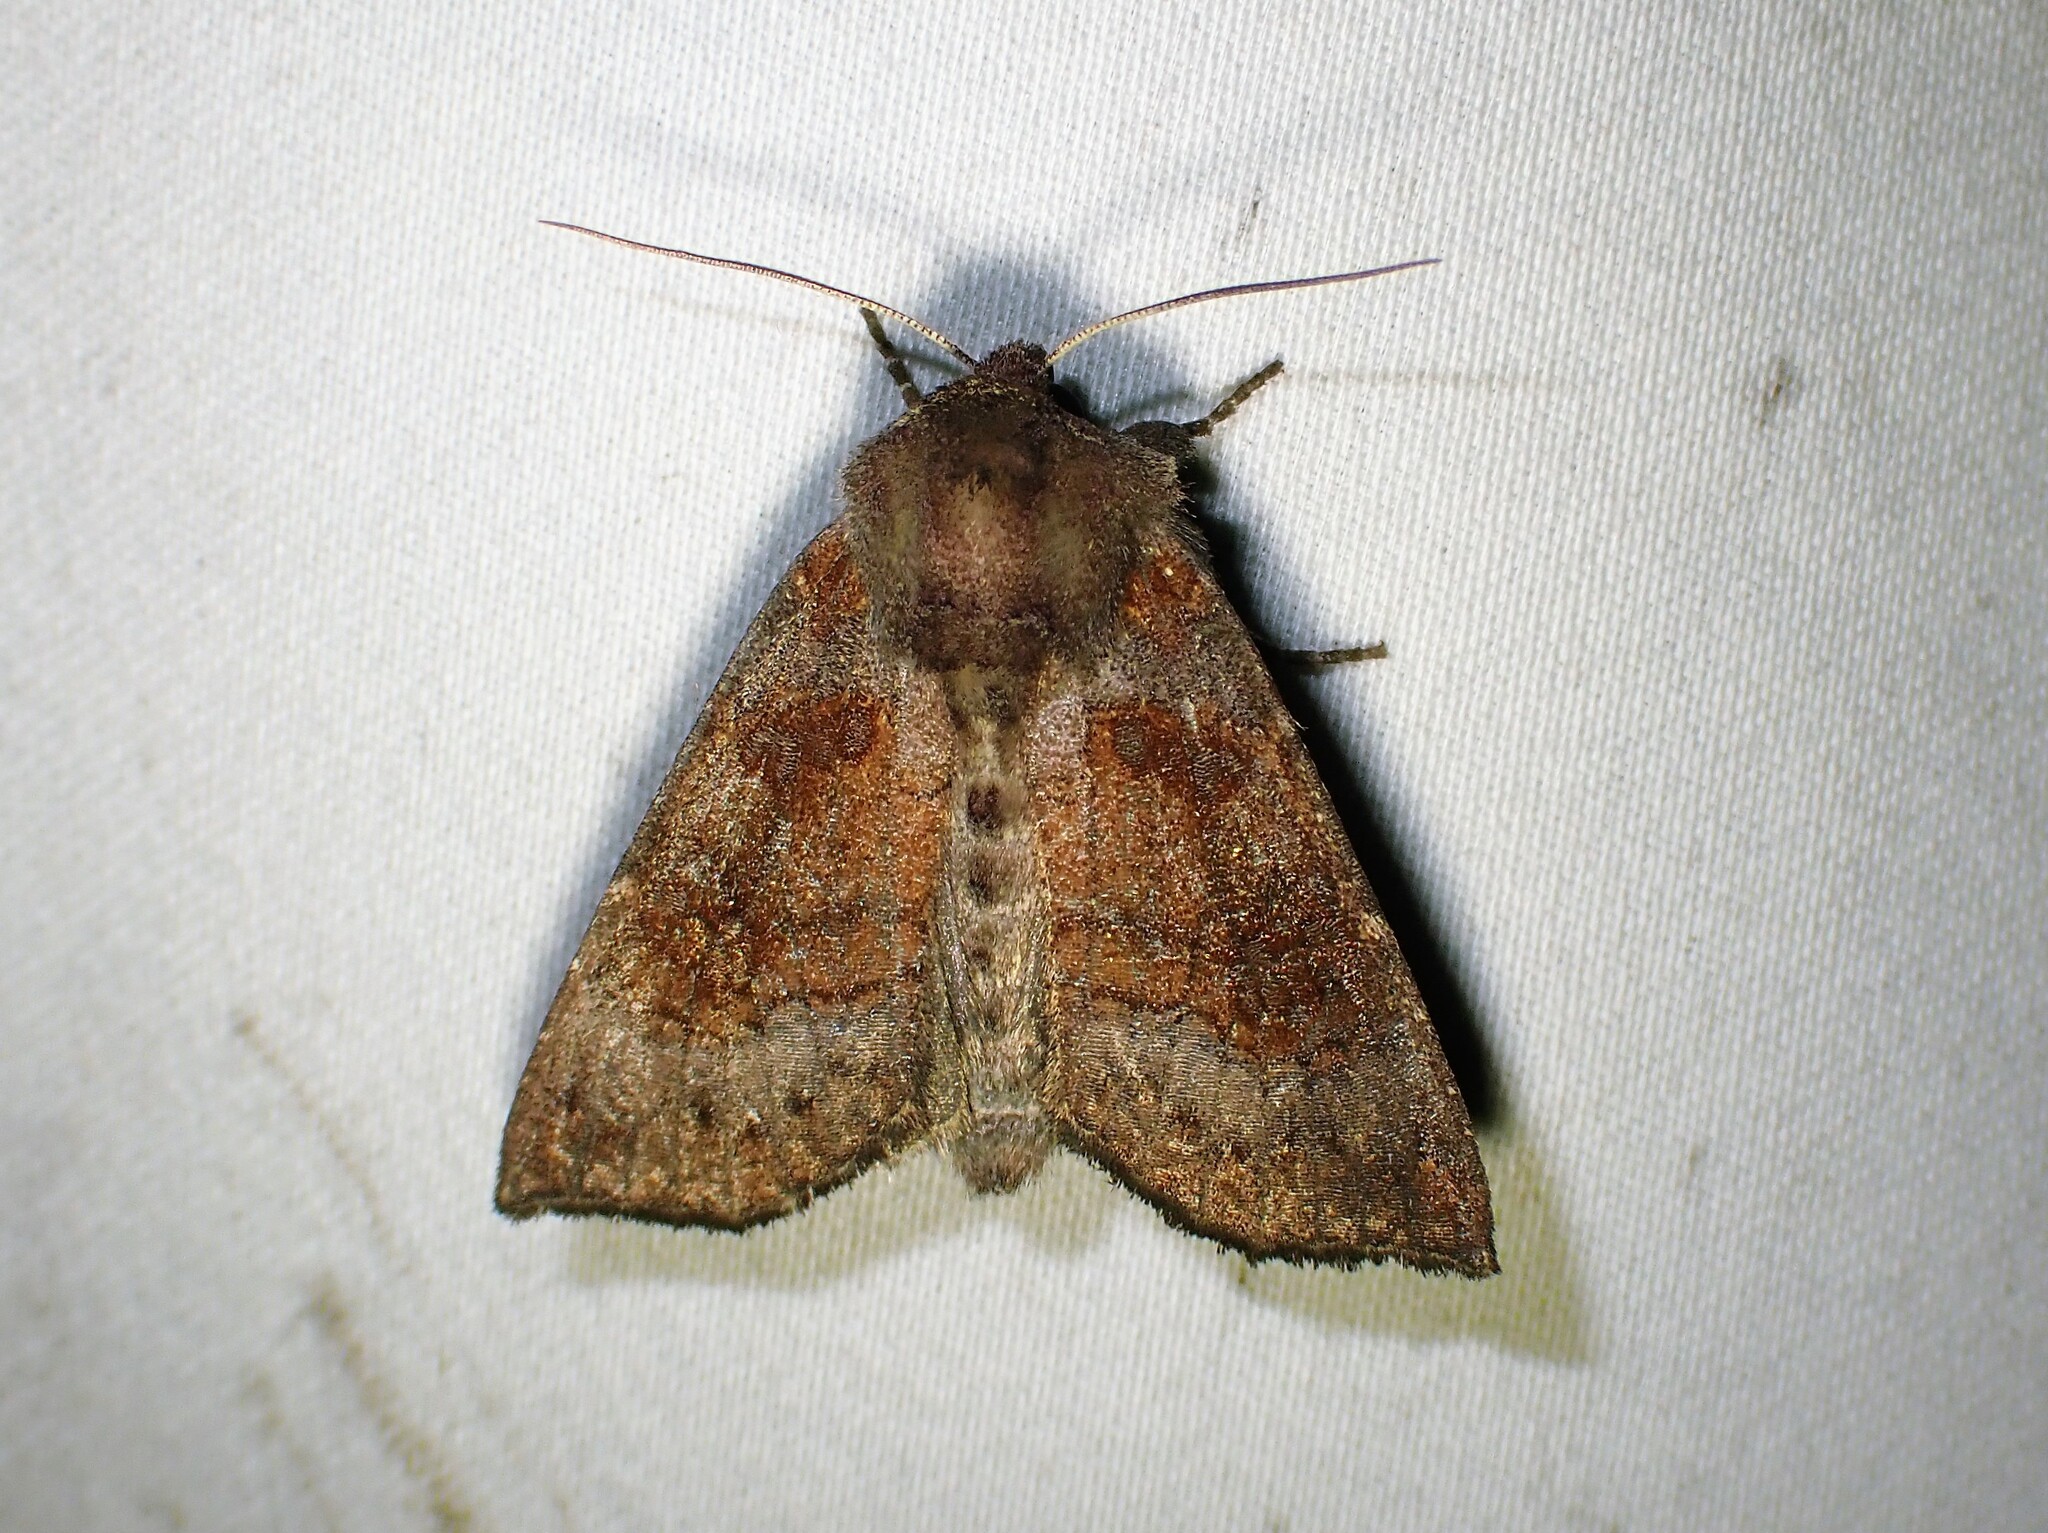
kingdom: Animalia
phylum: Arthropoda
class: Insecta
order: Lepidoptera
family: Noctuidae
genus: Papaipema
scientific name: Papaipema unimoda
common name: Meadow rue borer moth
